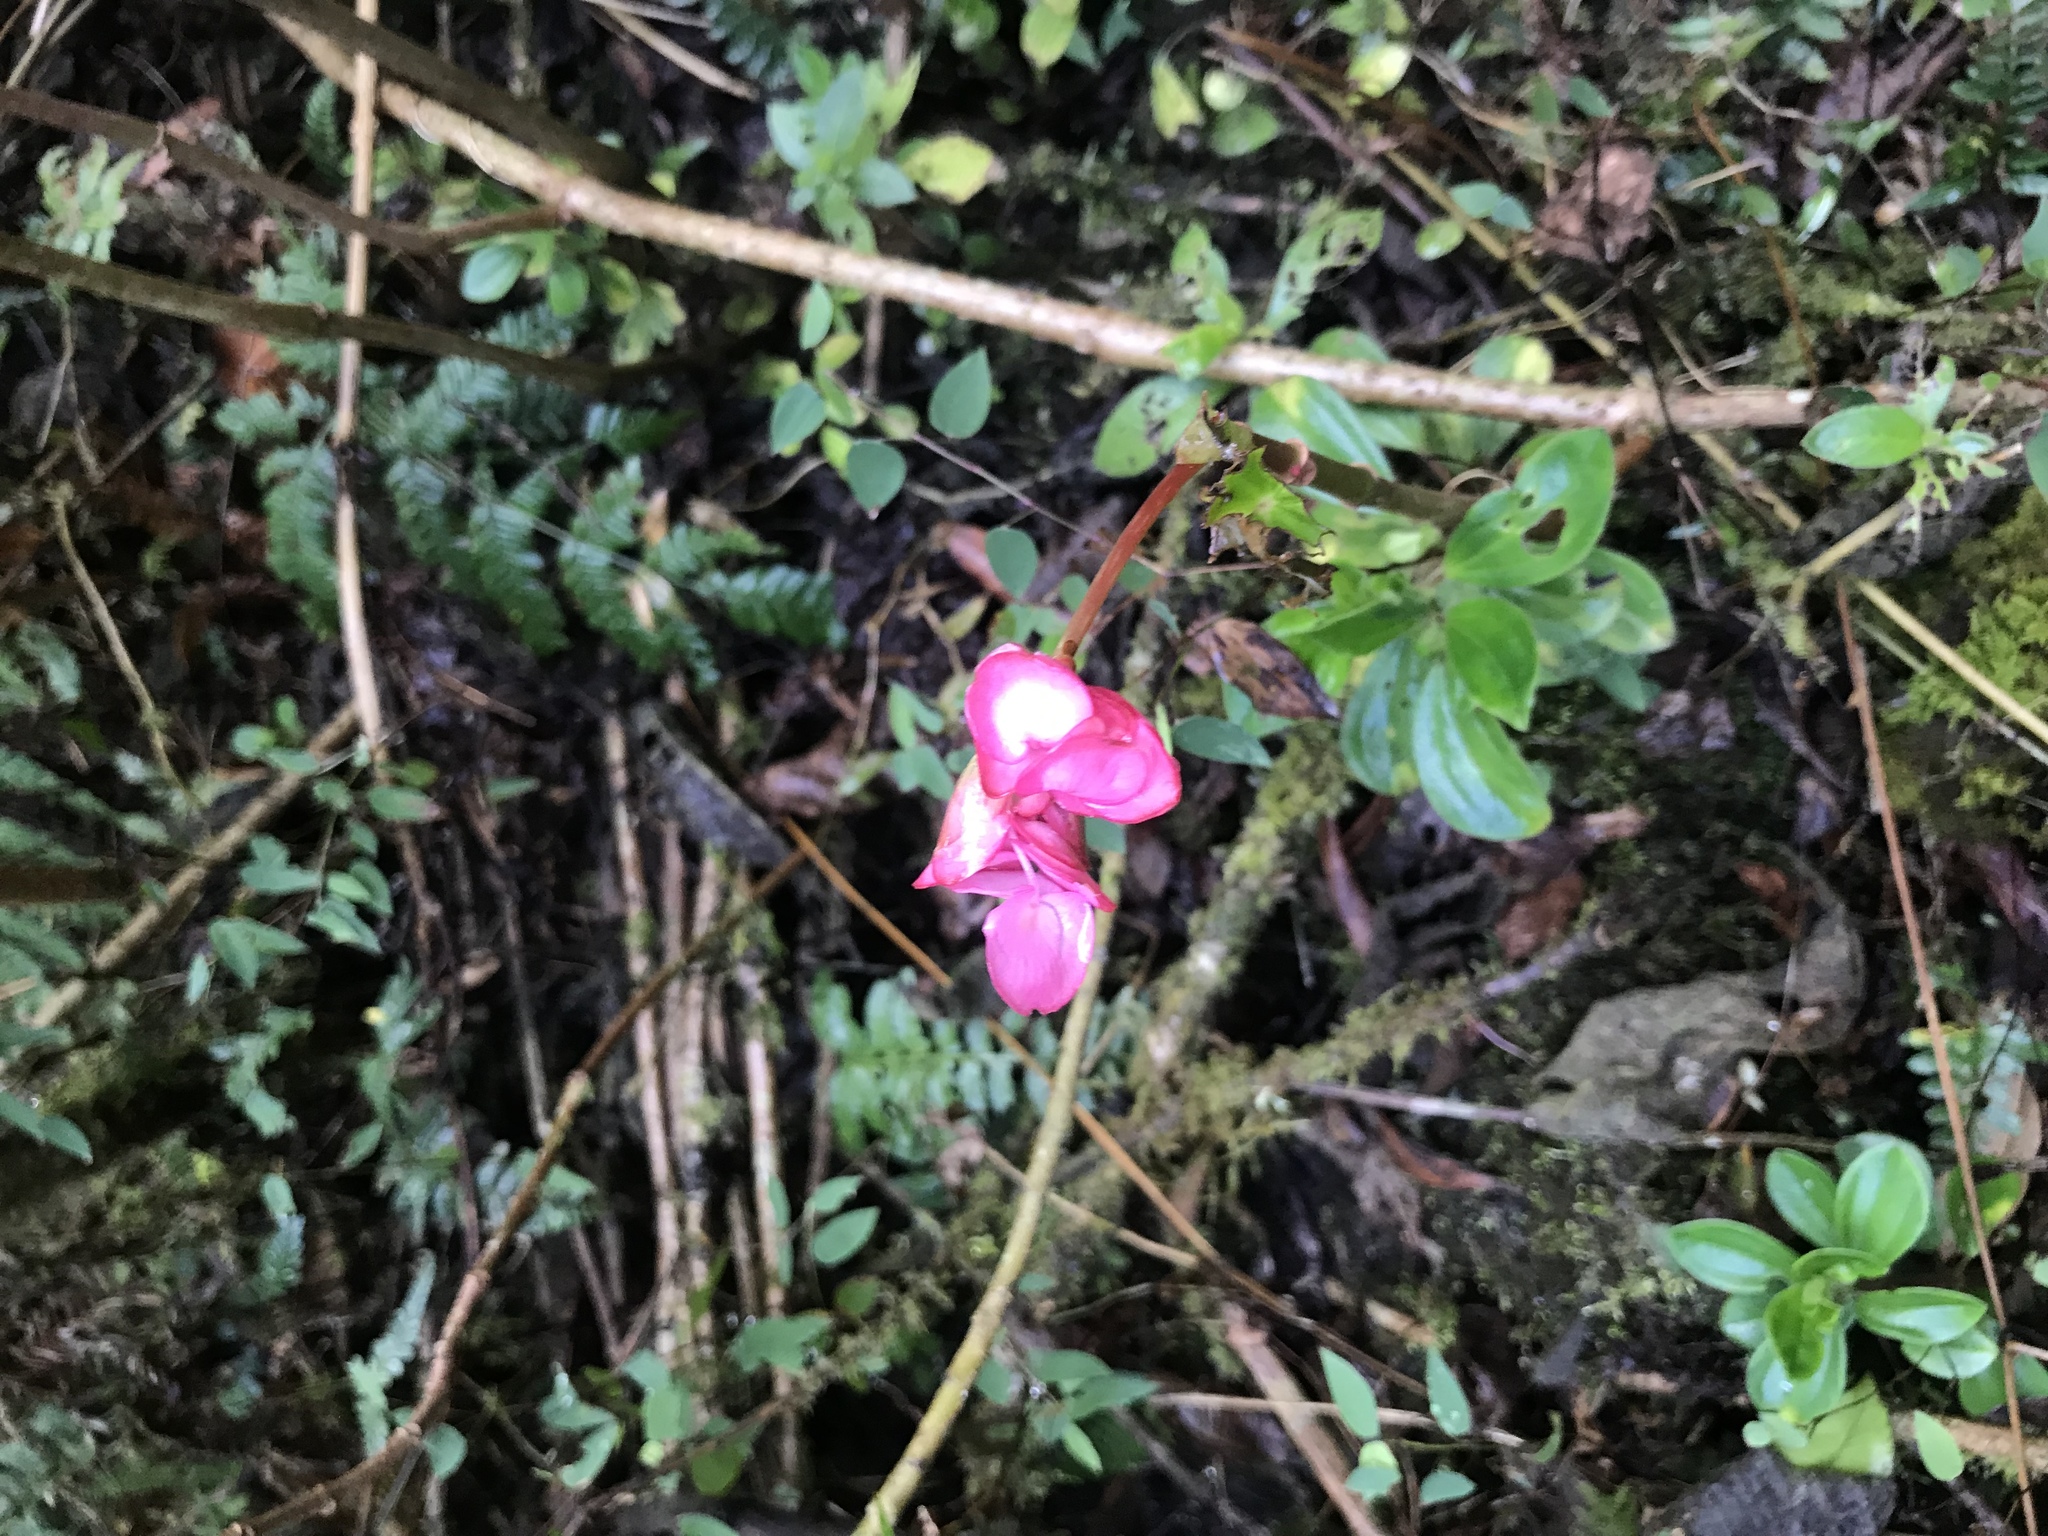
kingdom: Plantae
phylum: Tracheophyta
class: Magnoliopsida
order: Cucurbitales
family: Begoniaceae
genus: Begonia
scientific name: Begonia bracteosa
